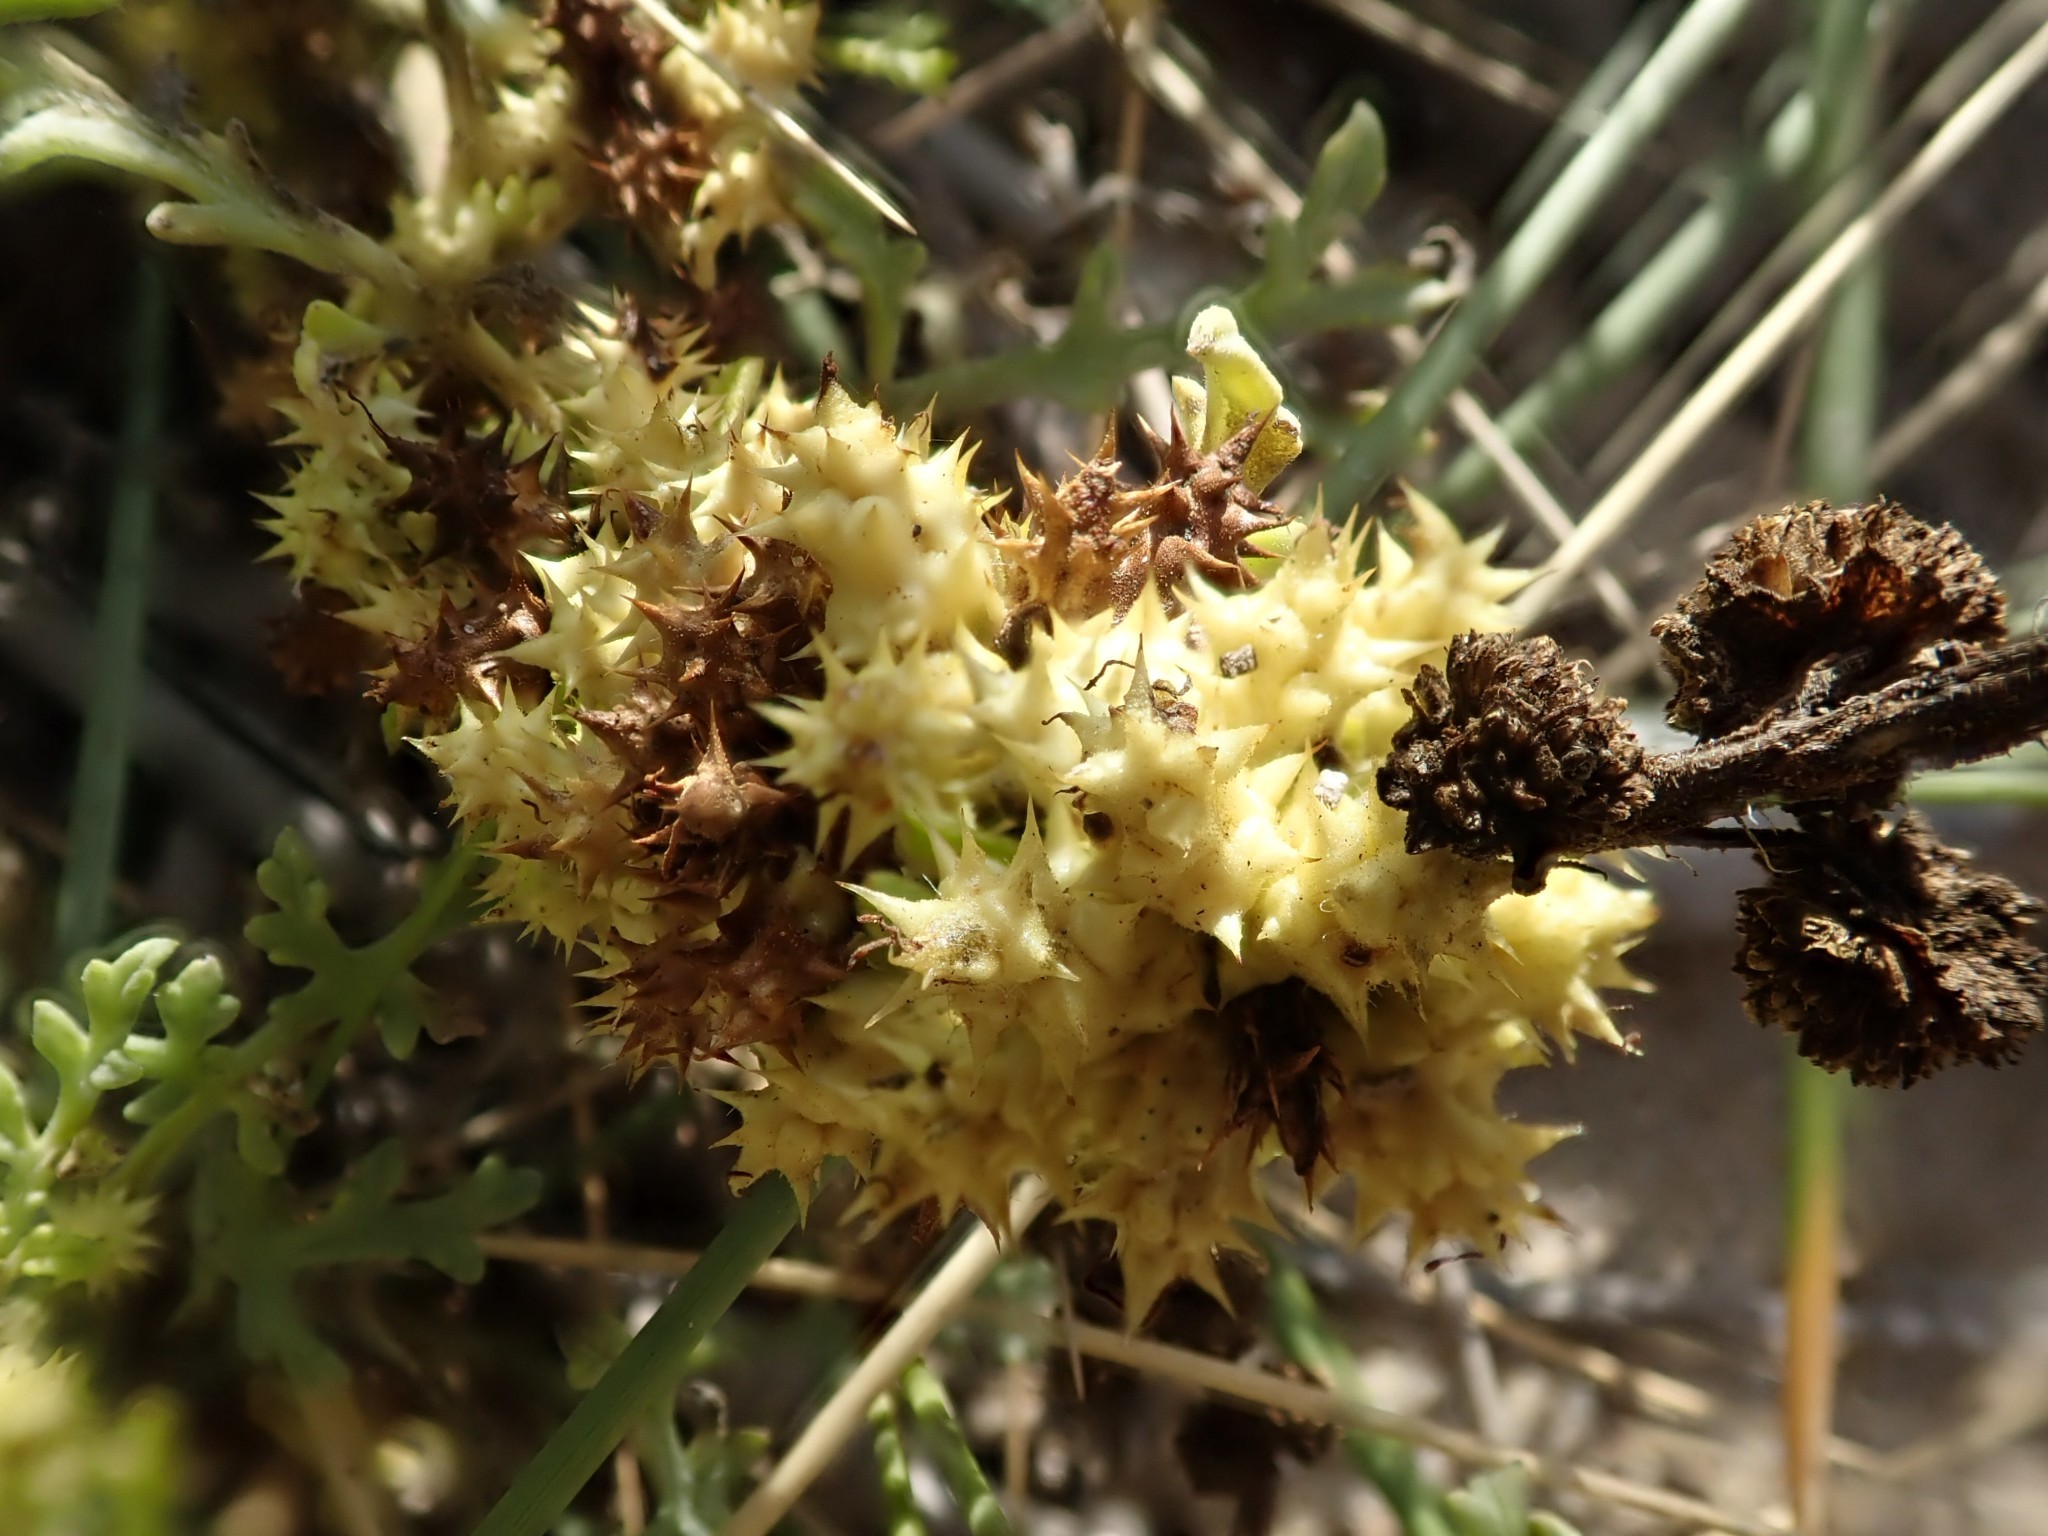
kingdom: Plantae
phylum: Tracheophyta
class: Magnoliopsida
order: Asterales
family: Asteraceae
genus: Ambrosia
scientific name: Ambrosia chamissonis
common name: Beachbur
